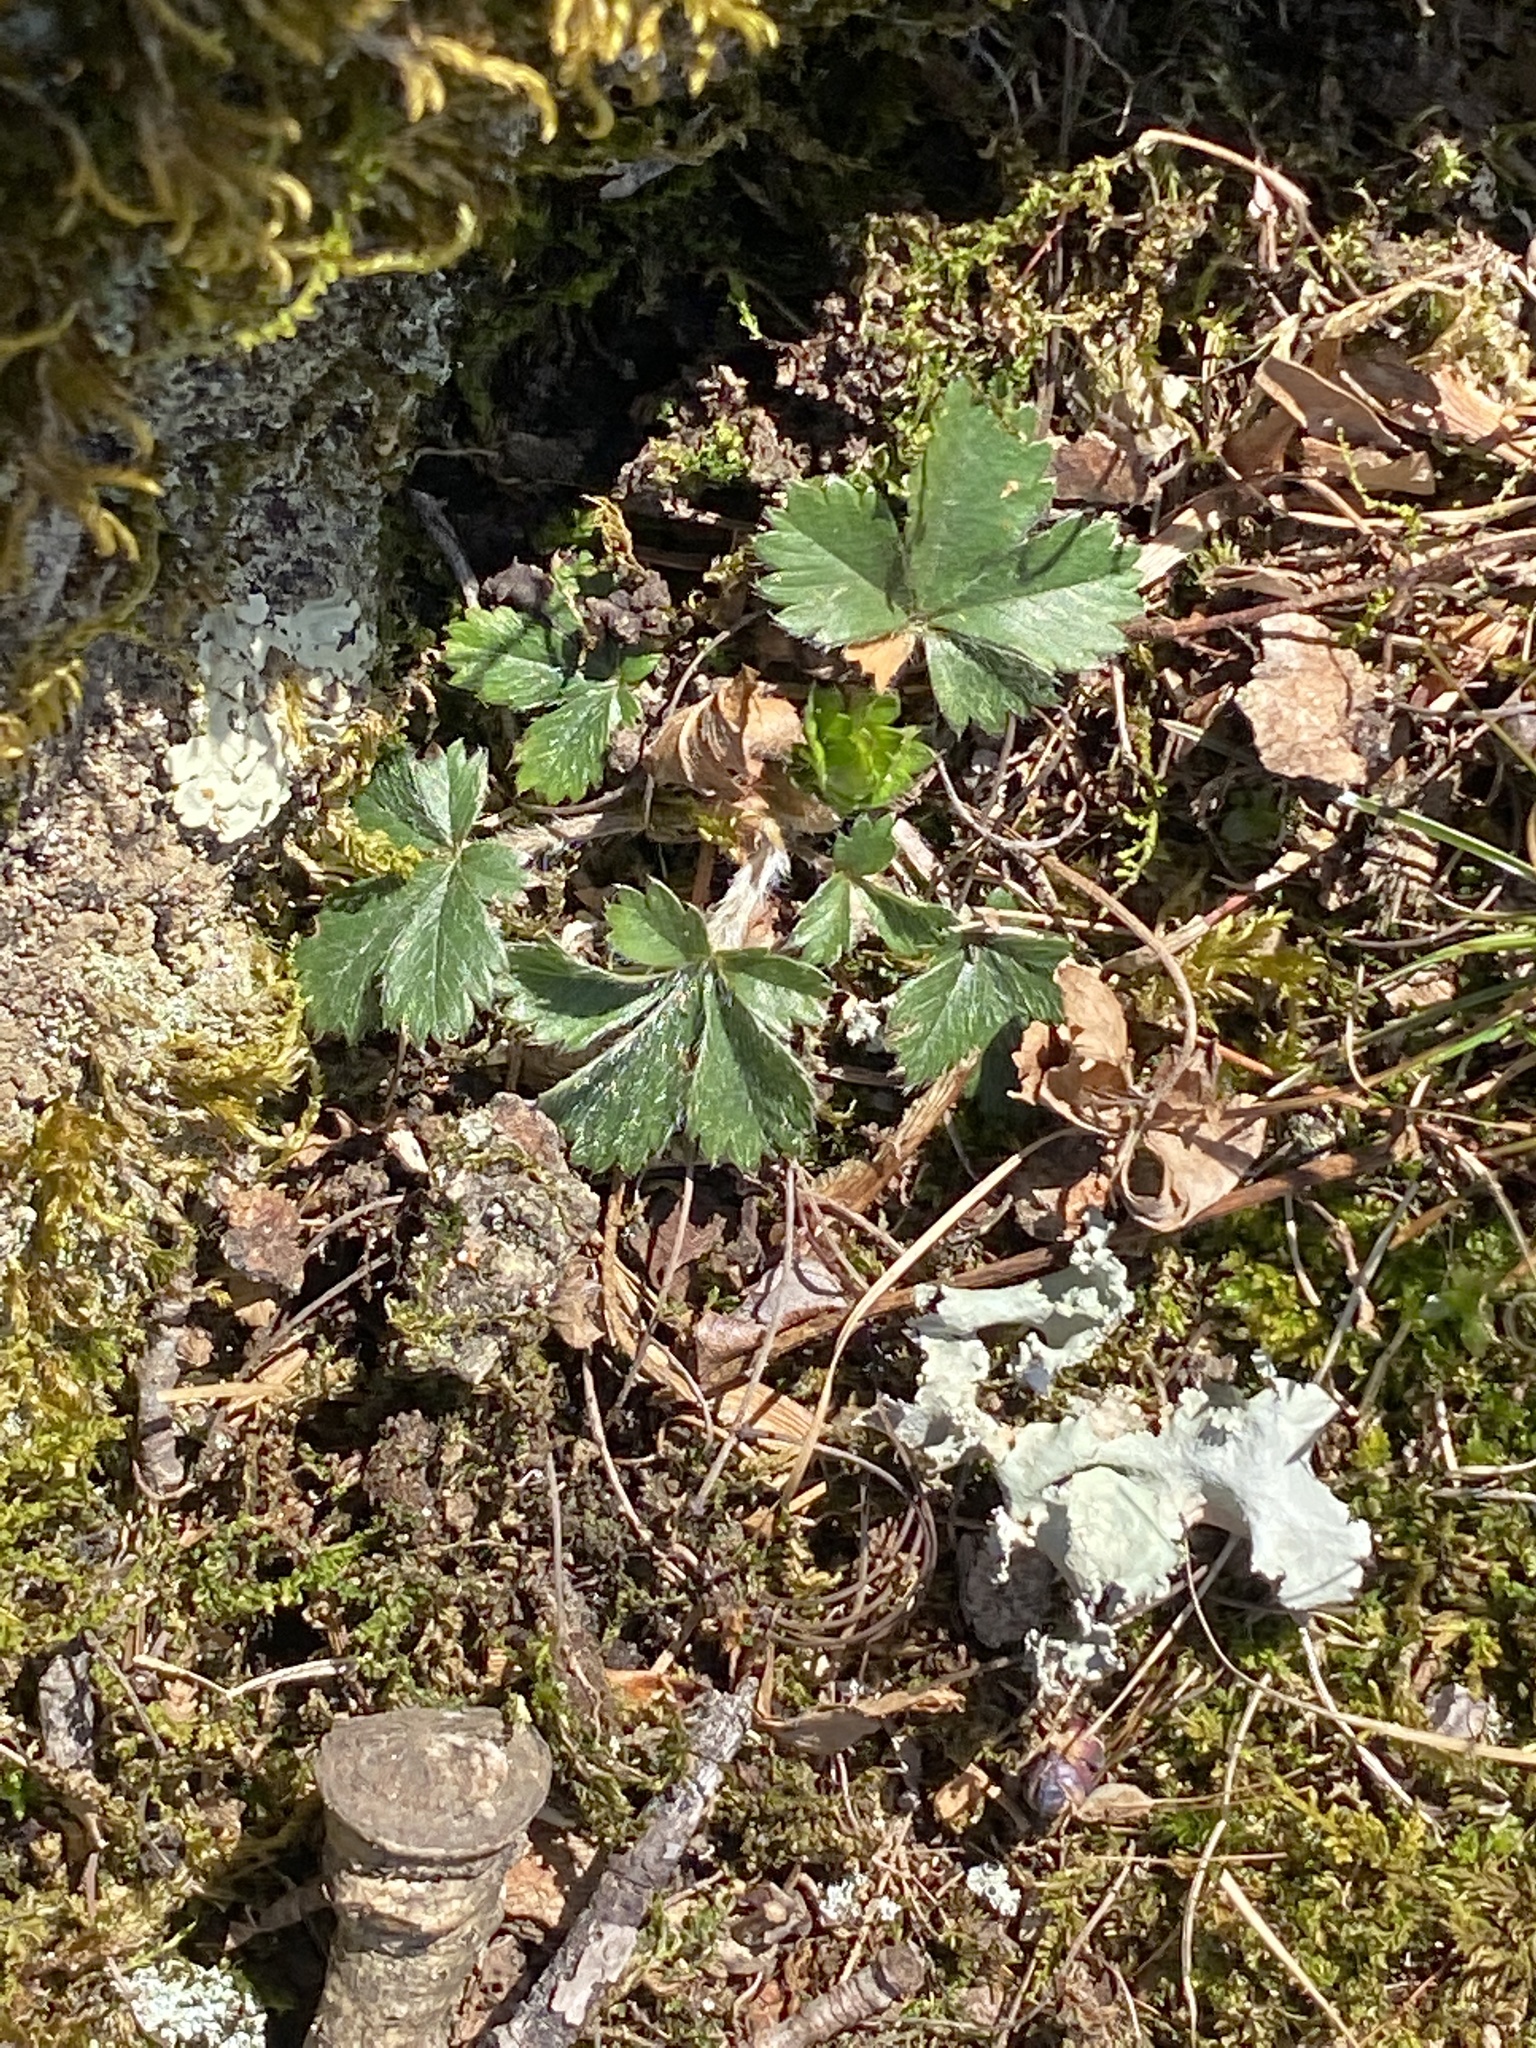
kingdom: Plantae
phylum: Tracheophyta
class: Magnoliopsida
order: Rosales
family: Rosaceae
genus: Potentilla
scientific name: Potentilla canadensis
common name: Canada cinquefoil
